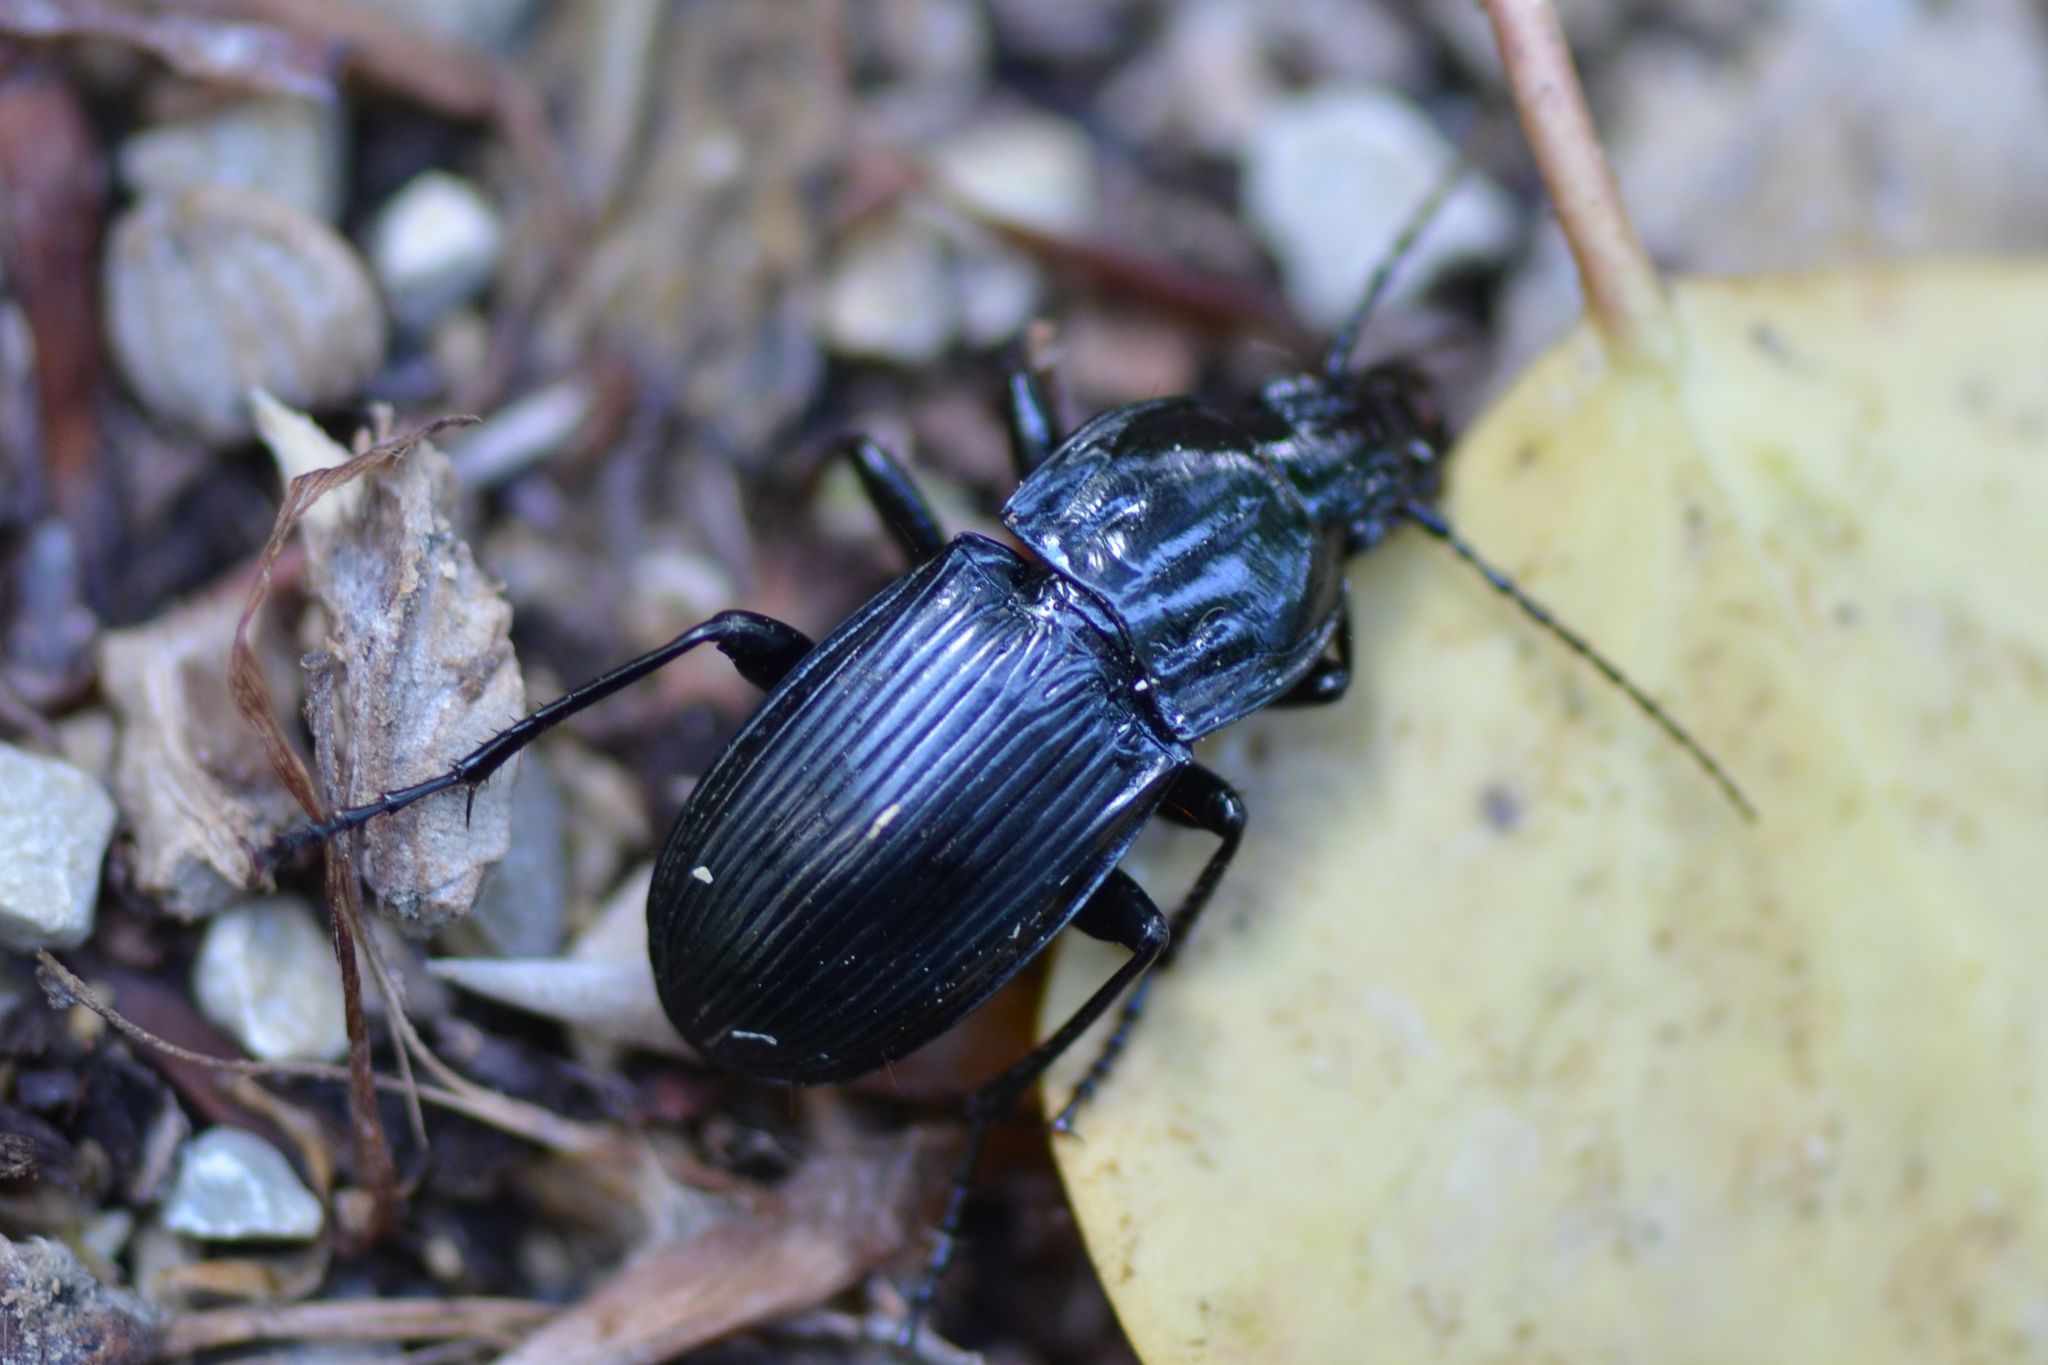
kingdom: Animalia
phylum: Arthropoda
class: Insecta
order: Coleoptera
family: Carabidae
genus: Abax
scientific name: Abax parallelepipedus
